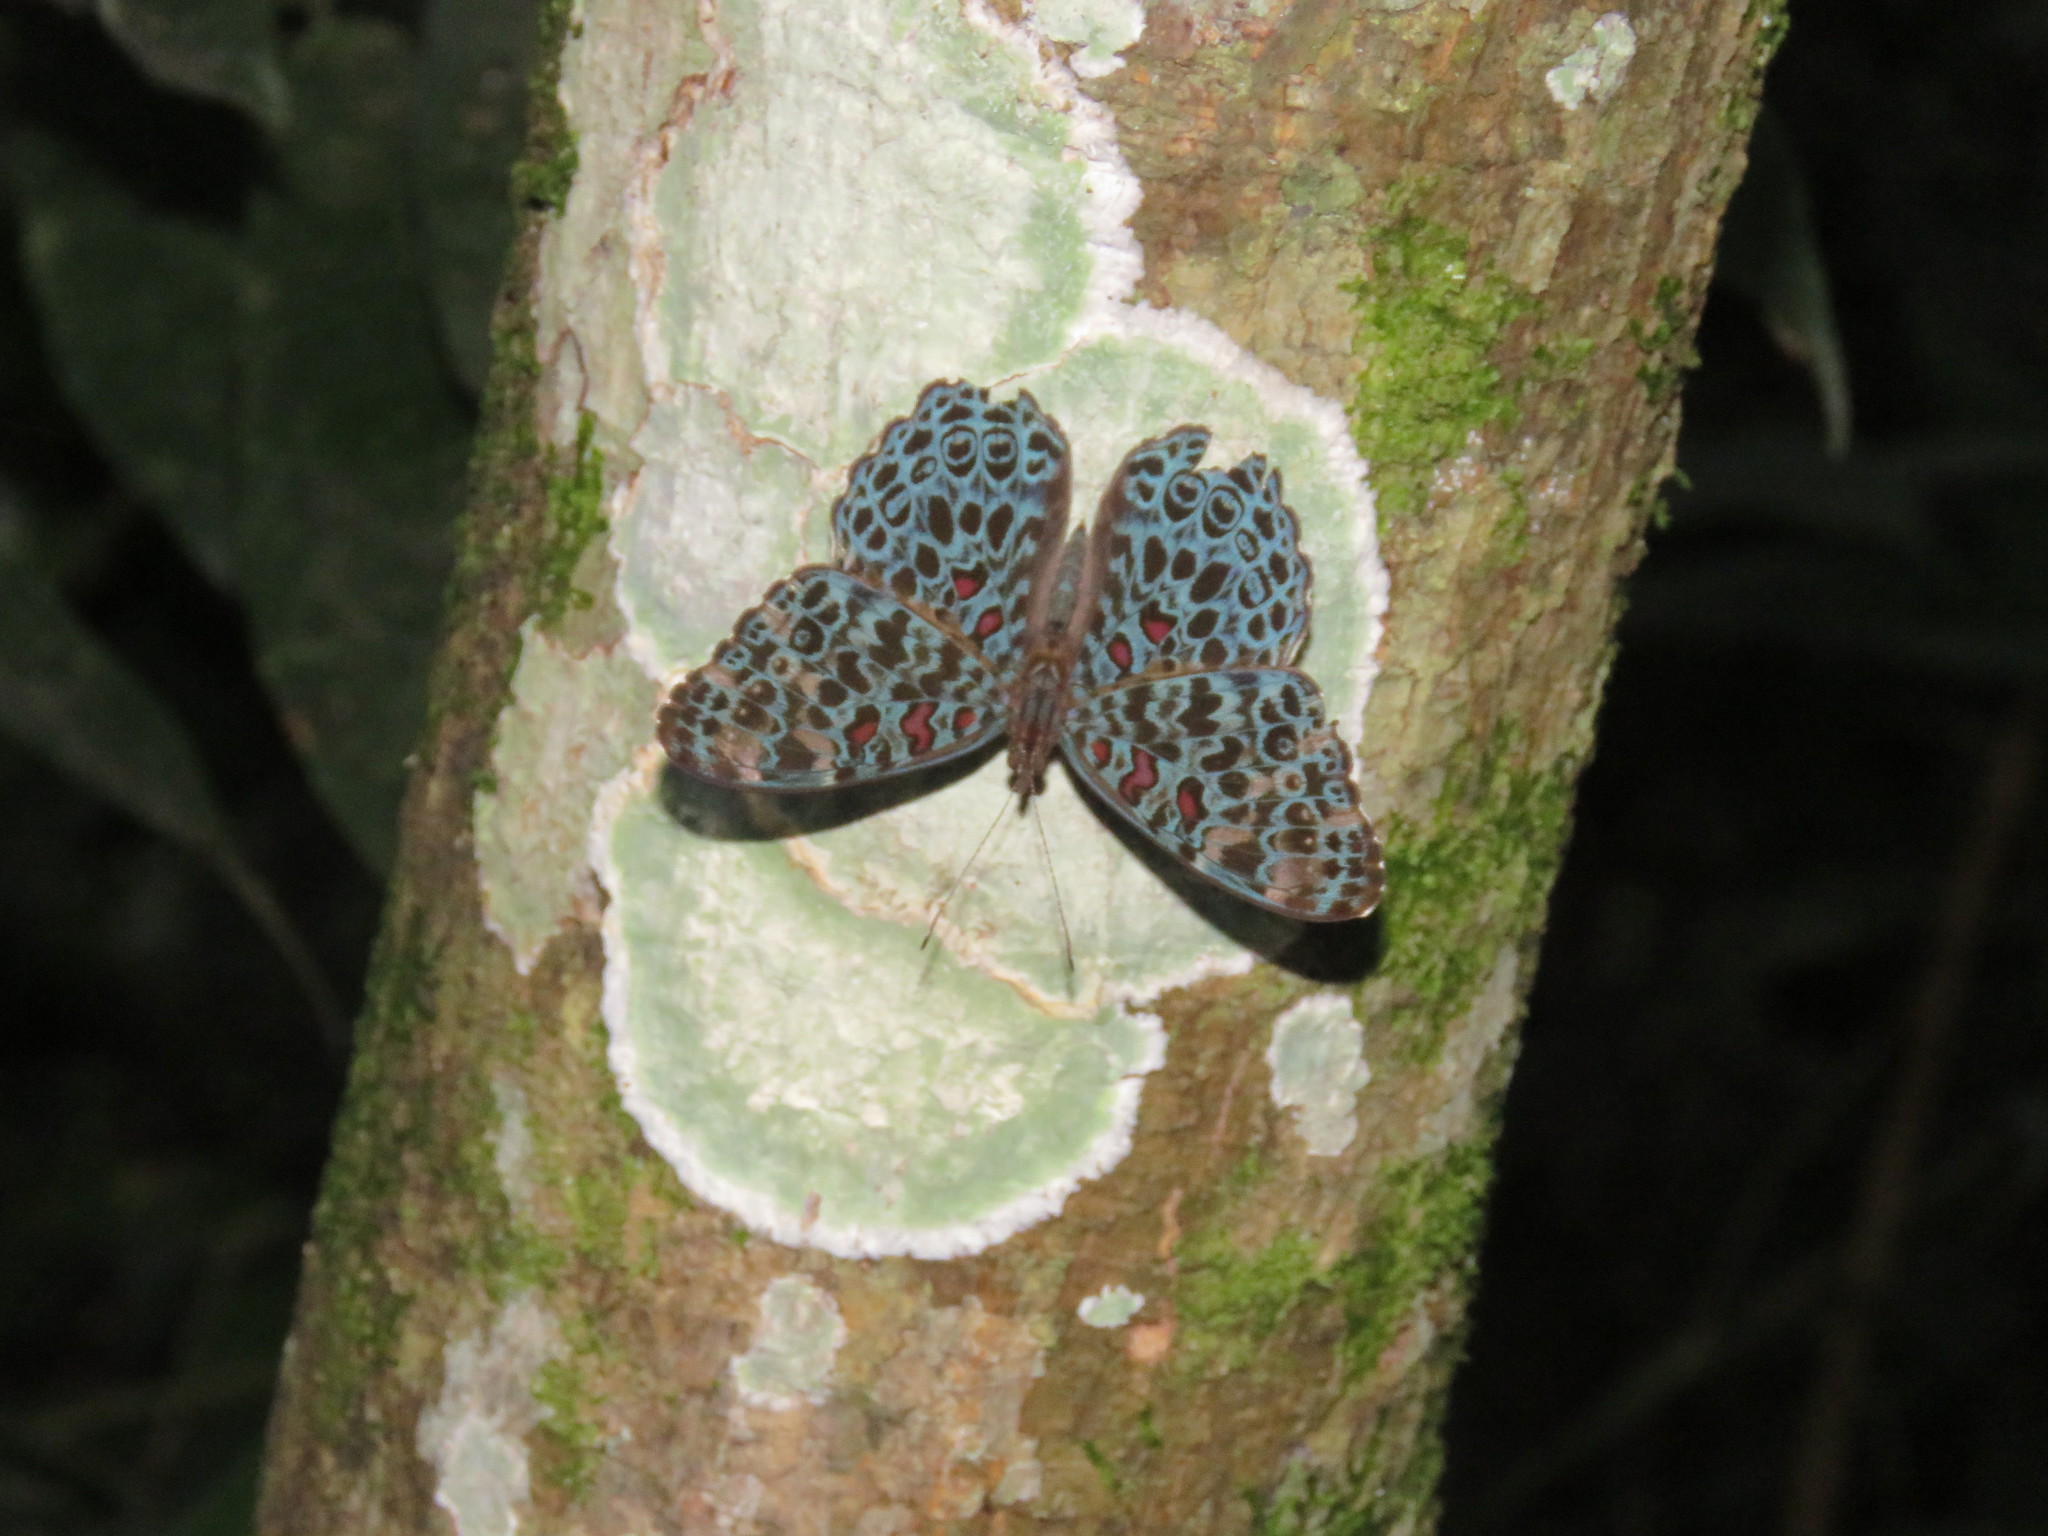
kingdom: Animalia
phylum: Arthropoda
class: Insecta
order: Lepidoptera
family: Nymphalidae
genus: Hamadryas
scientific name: Hamadryas chloe
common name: Amazon cracker
